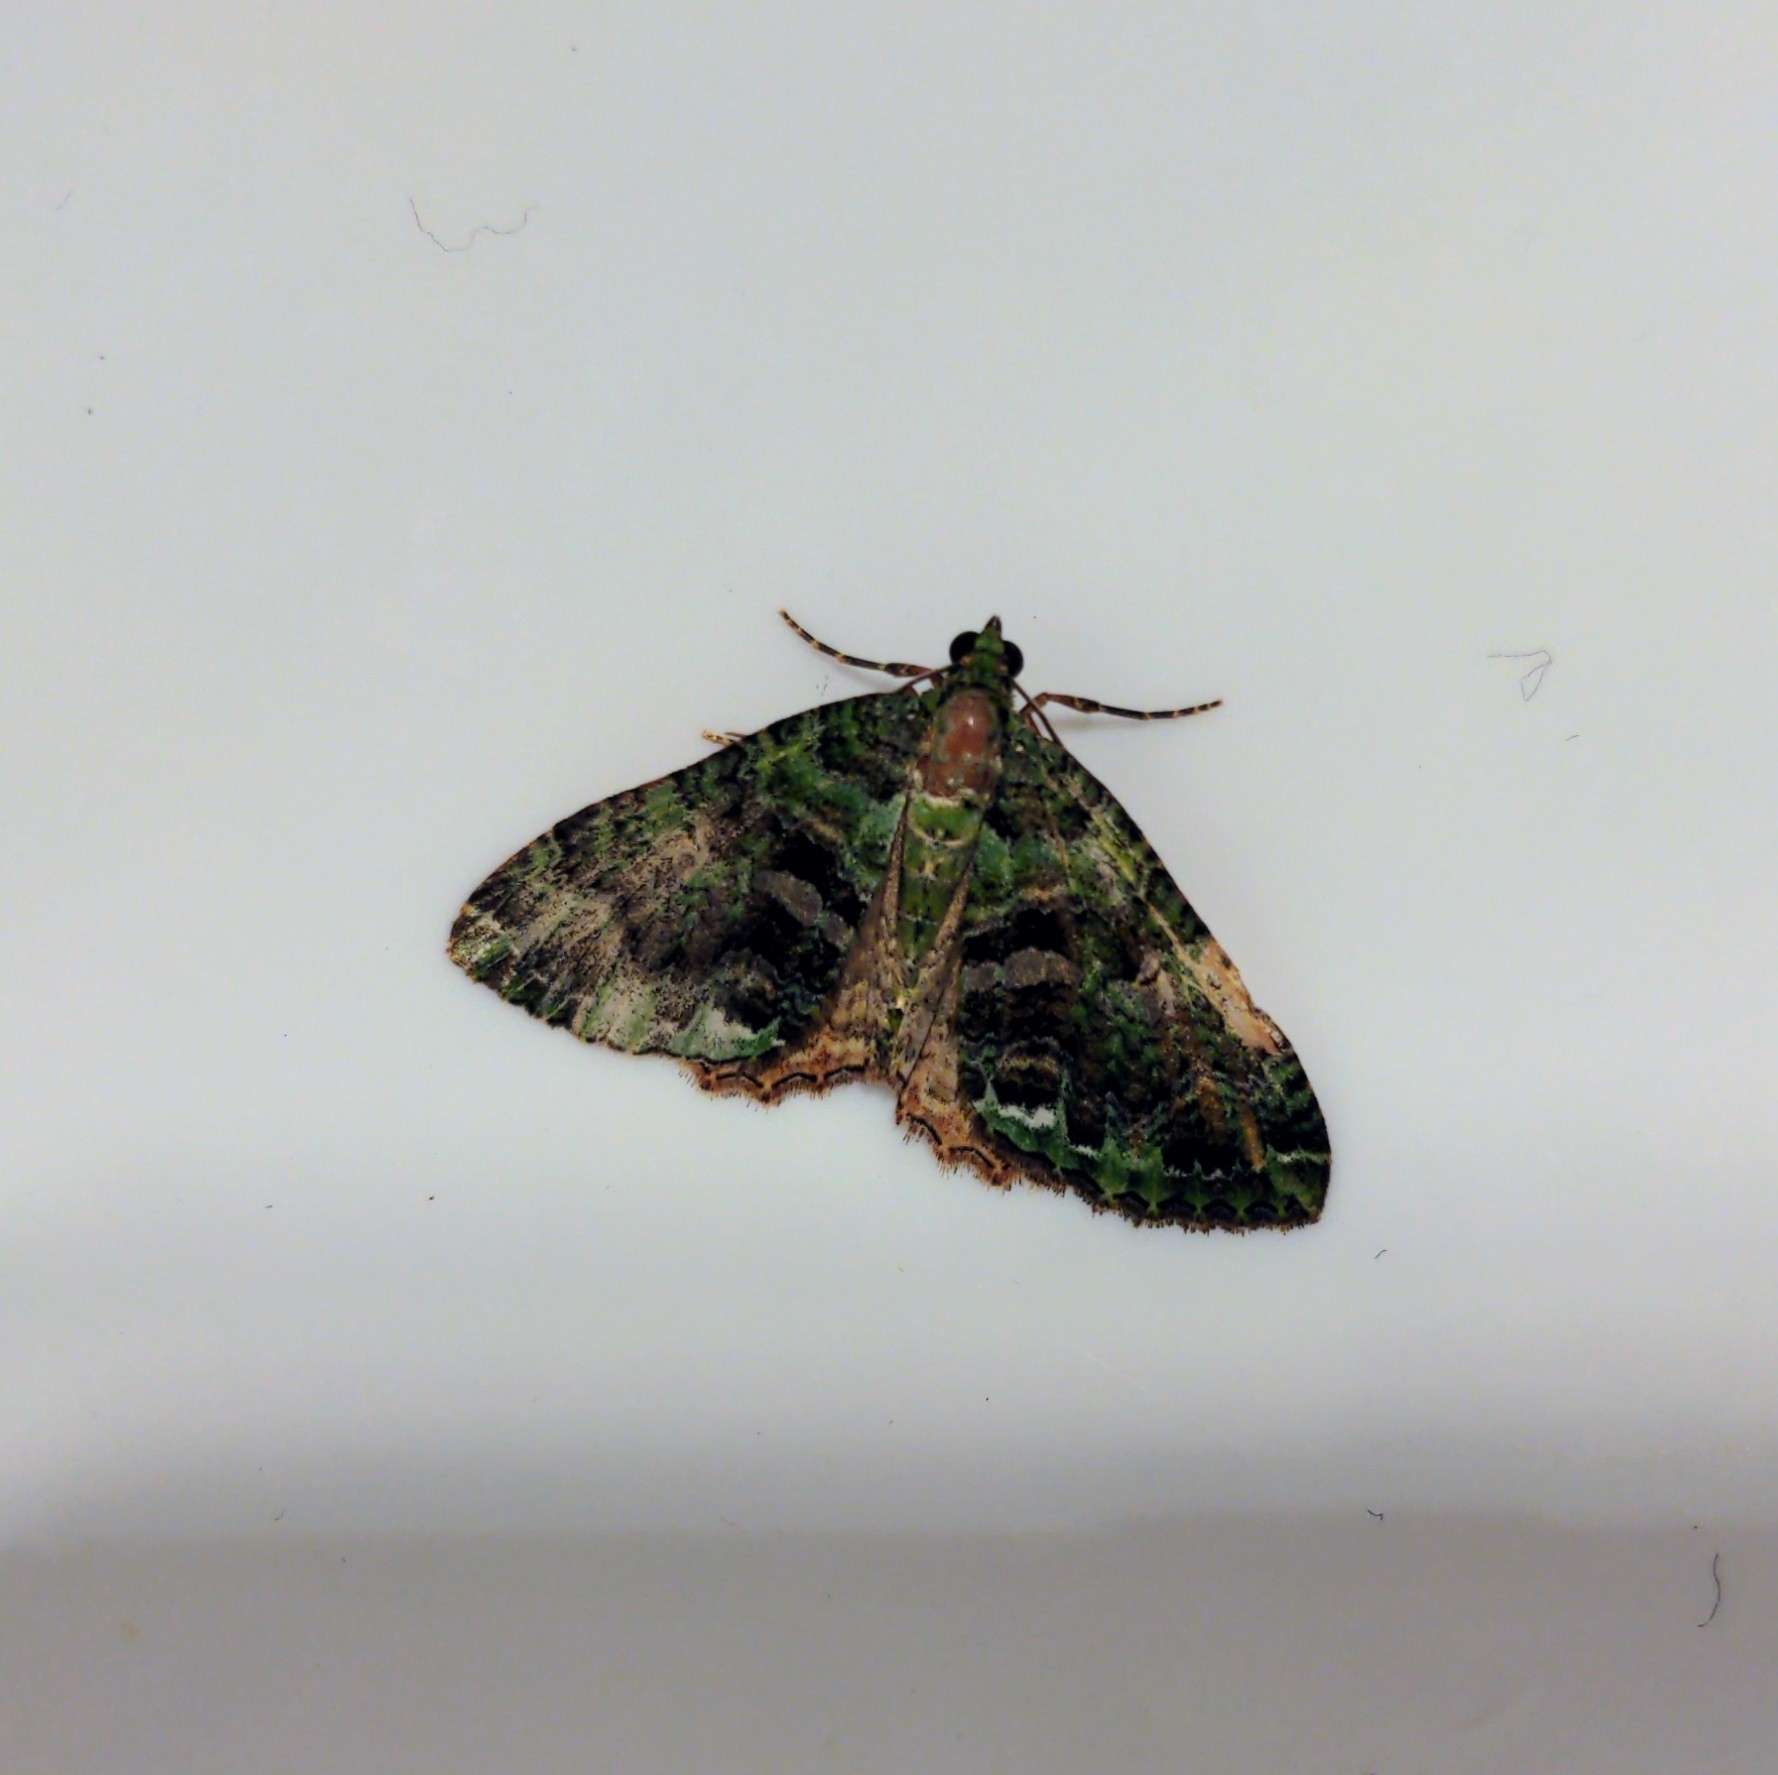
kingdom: Animalia
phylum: Arthropoda
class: Insecta
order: Lepidoptera
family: Geometridae
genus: Austrocidaria
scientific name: Austrocidaria similata
